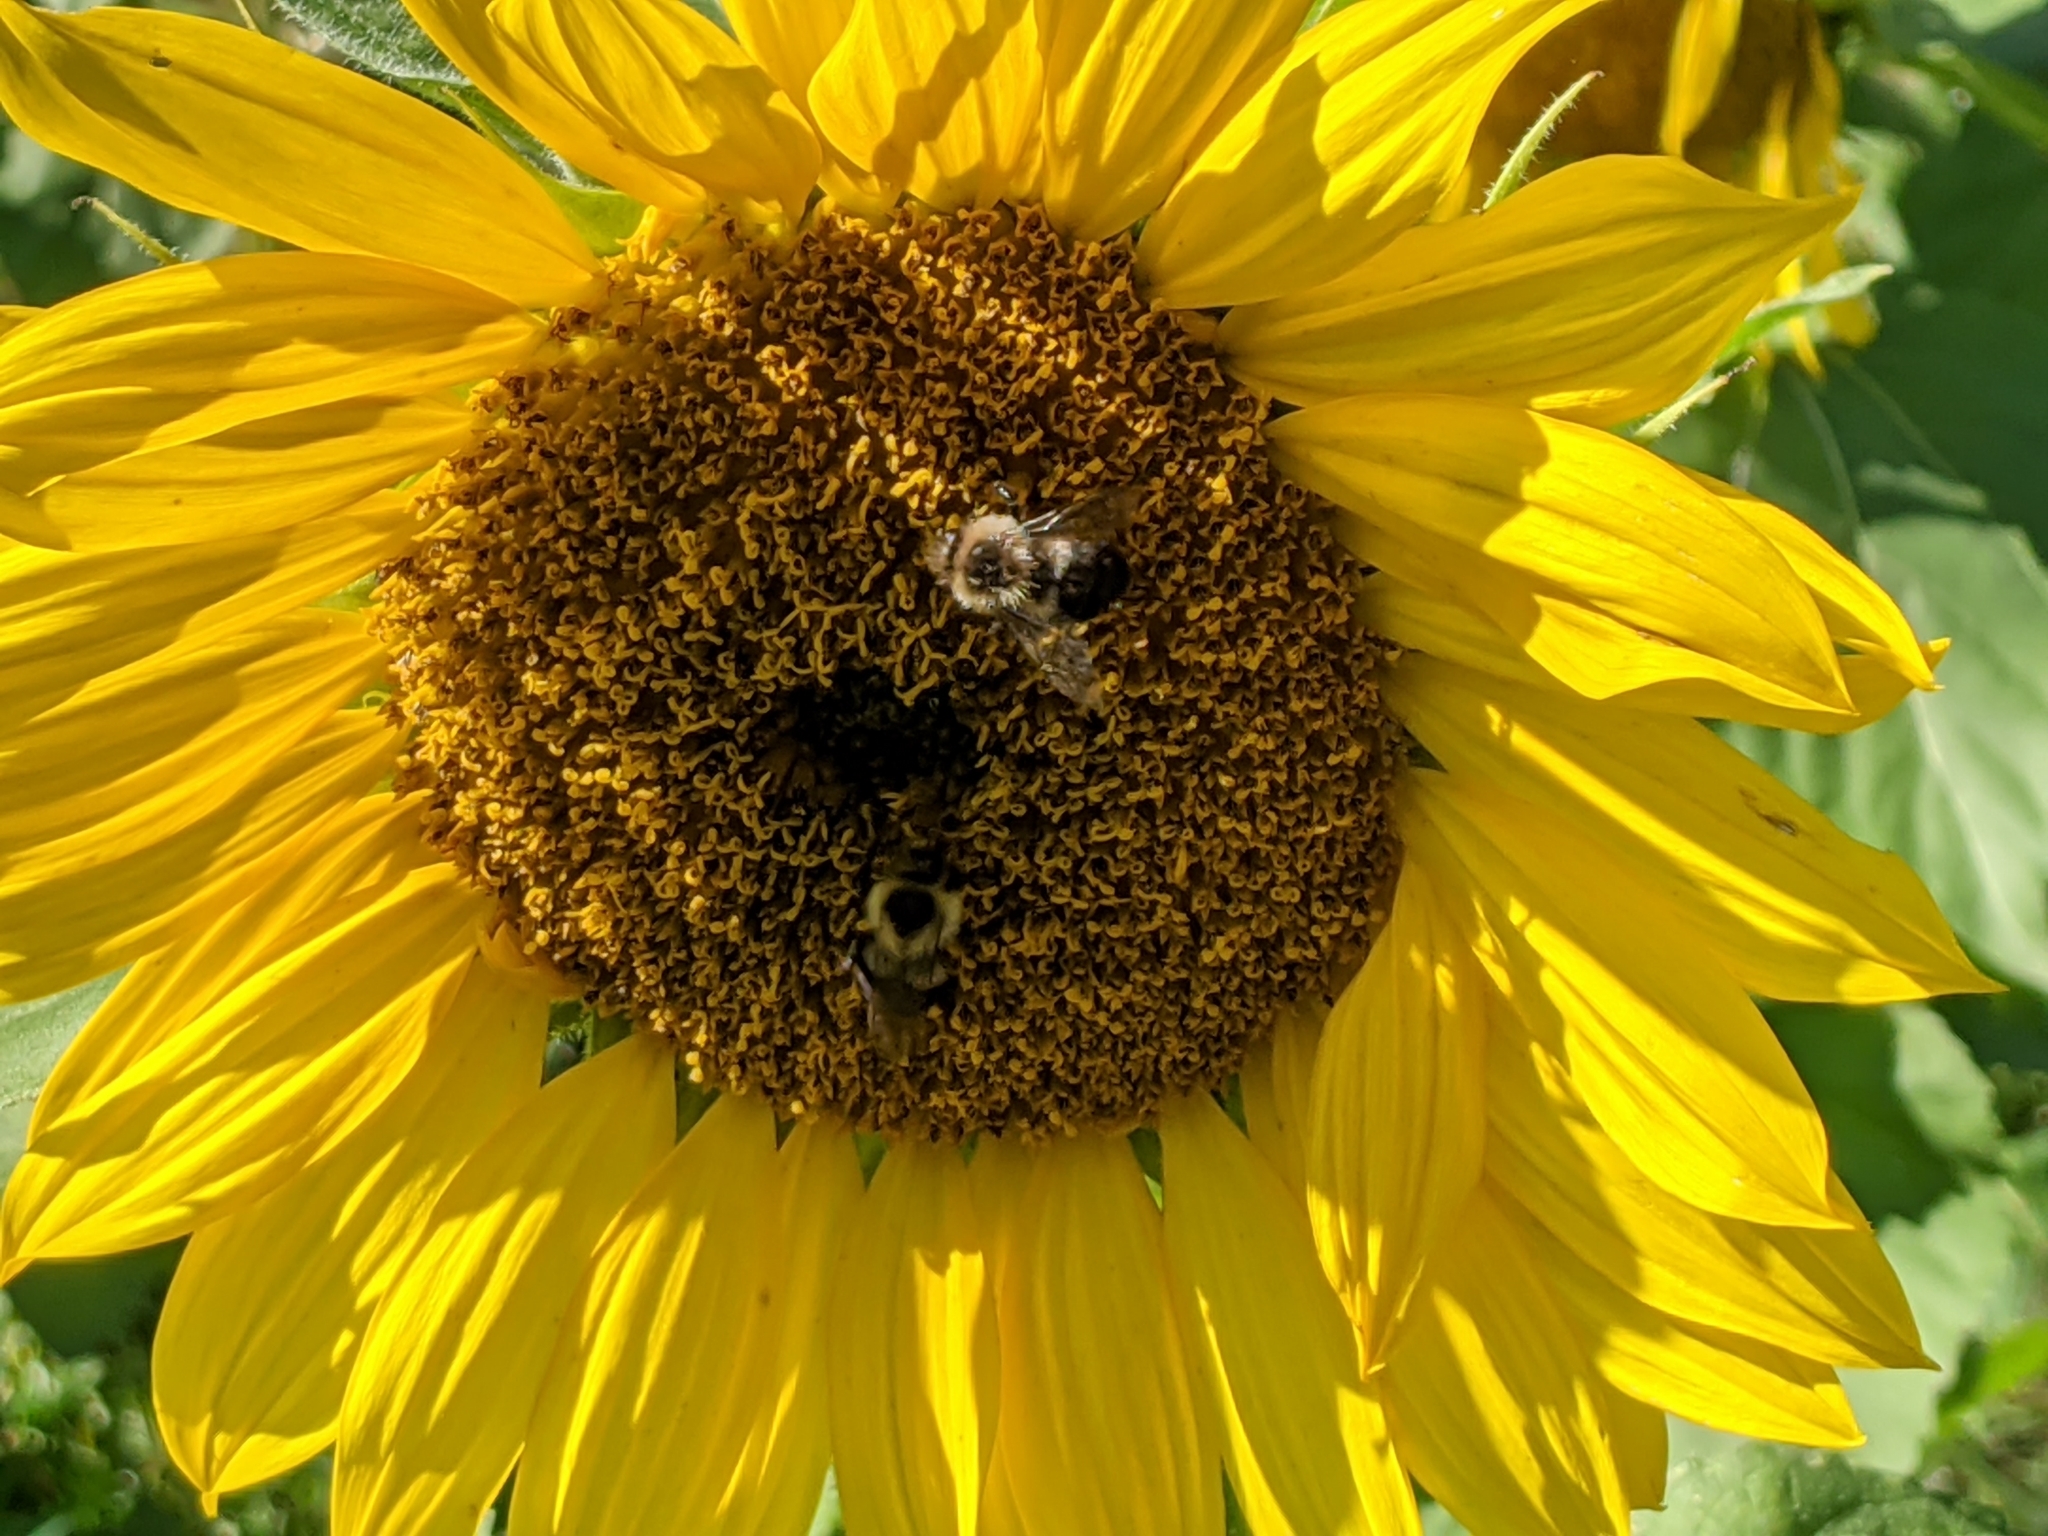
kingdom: Animalia
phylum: Arthropoda
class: Insecta
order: Hymenoptera
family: Apidae
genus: Bombus
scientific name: Bombus impatiens
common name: Common eastern bumble bee
